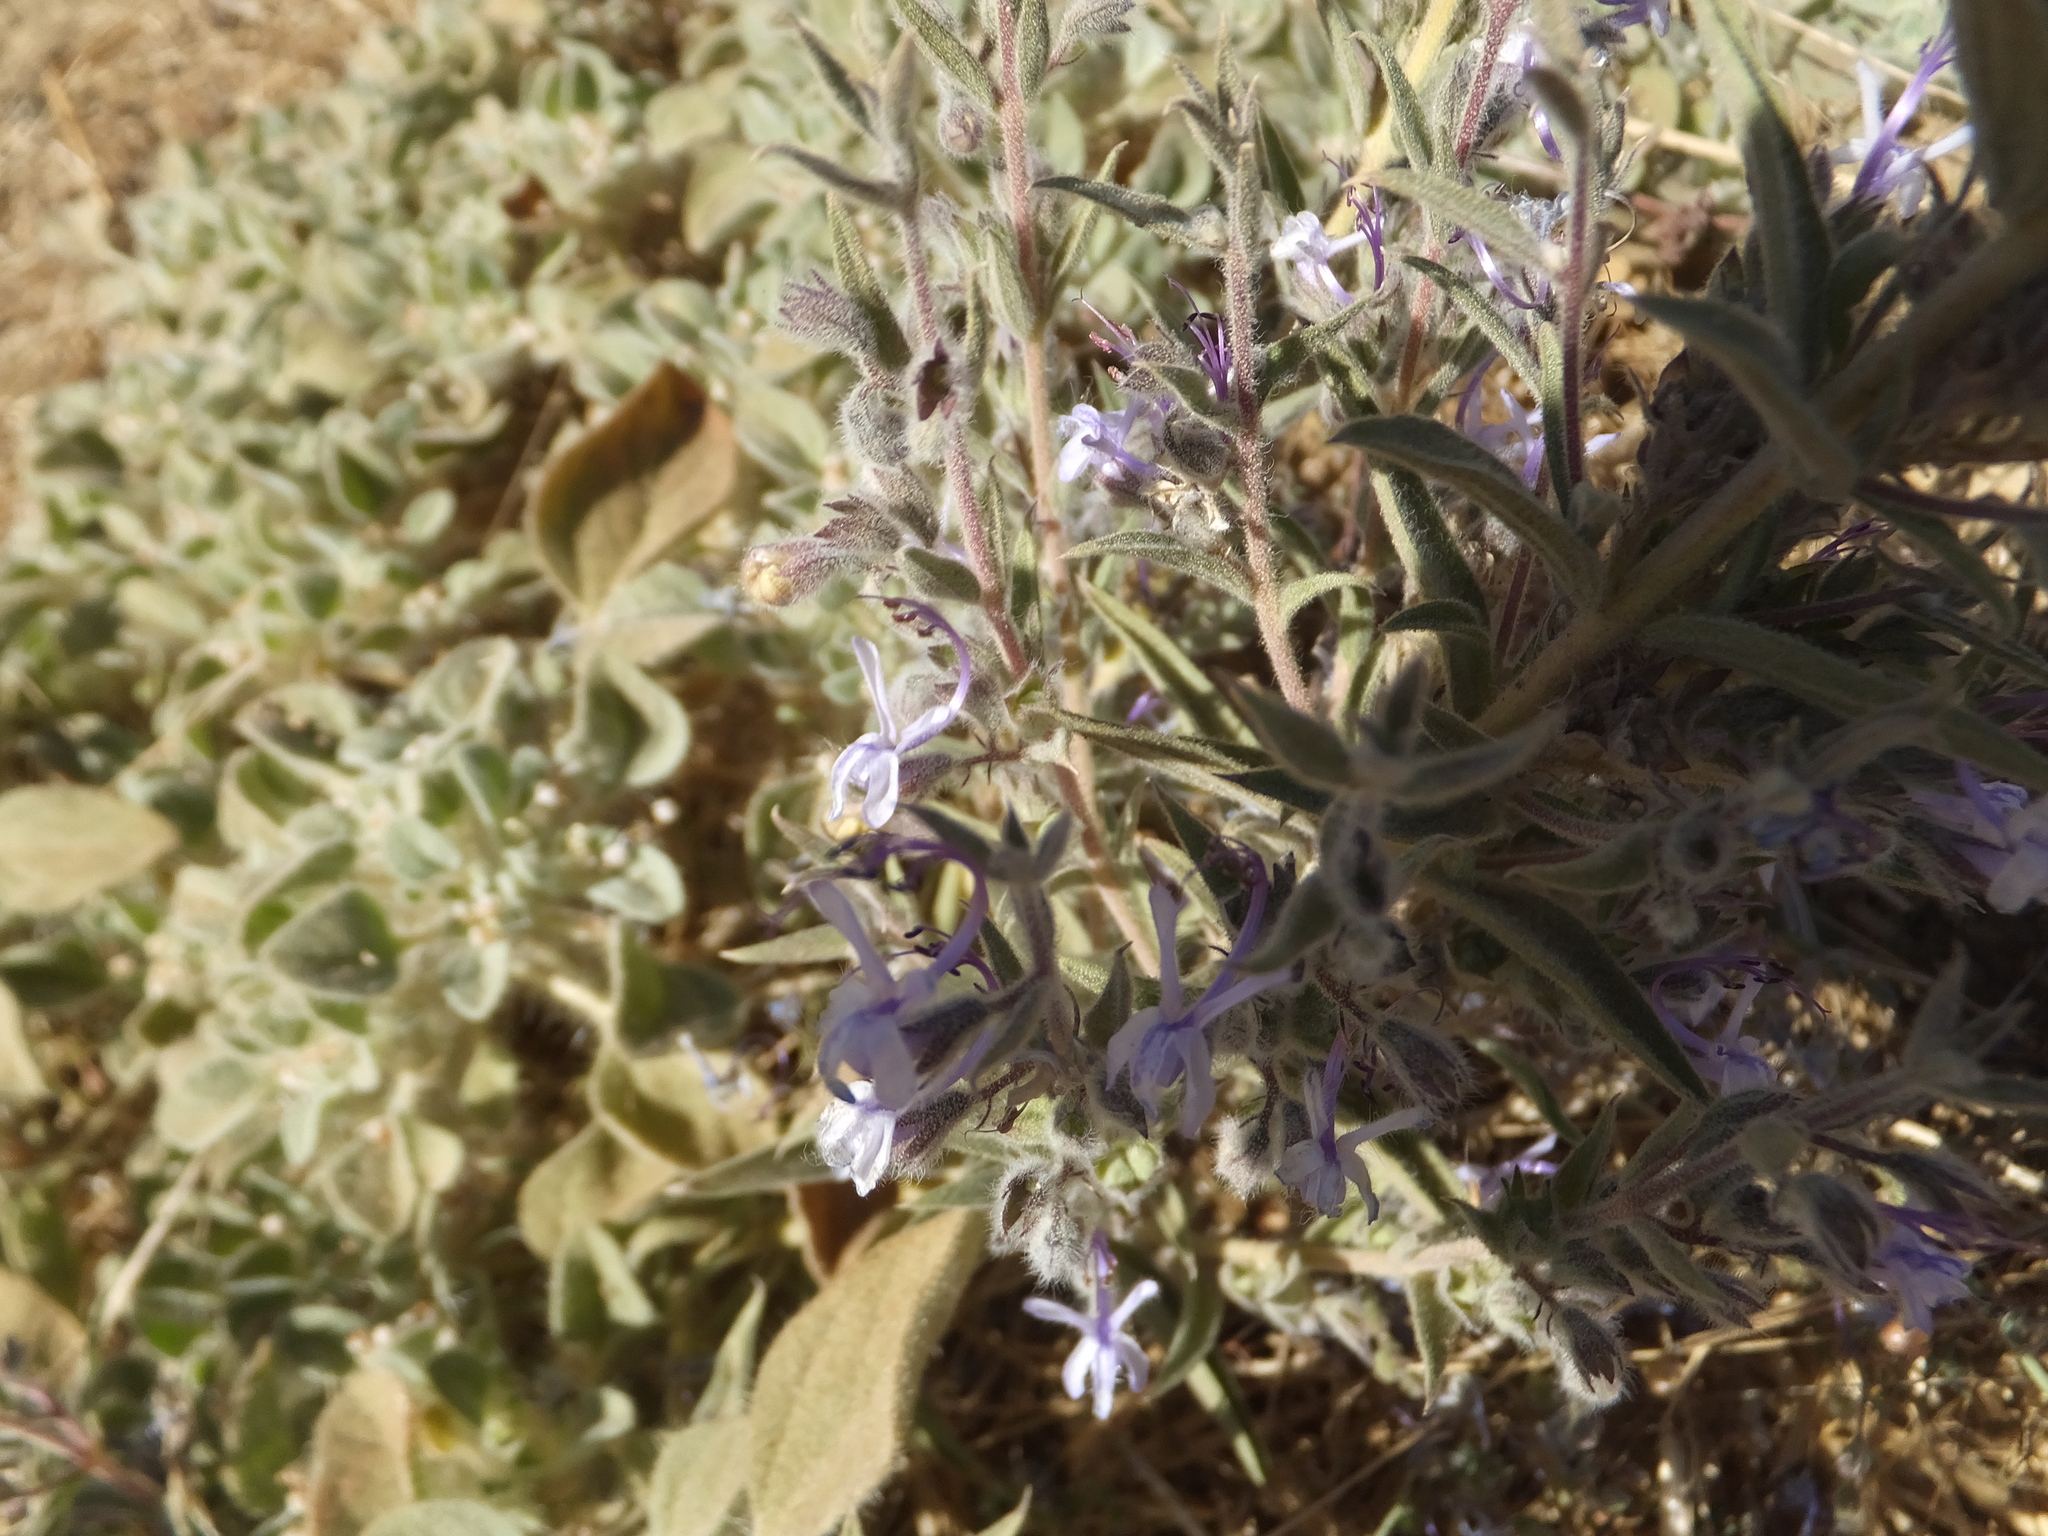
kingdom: Plantae
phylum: Tracheophyta
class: Magnoliopsida
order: Lamiales
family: Lamiaceae
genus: Trichostema
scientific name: Trichostema lanceolatum
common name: Vinegar-weed
